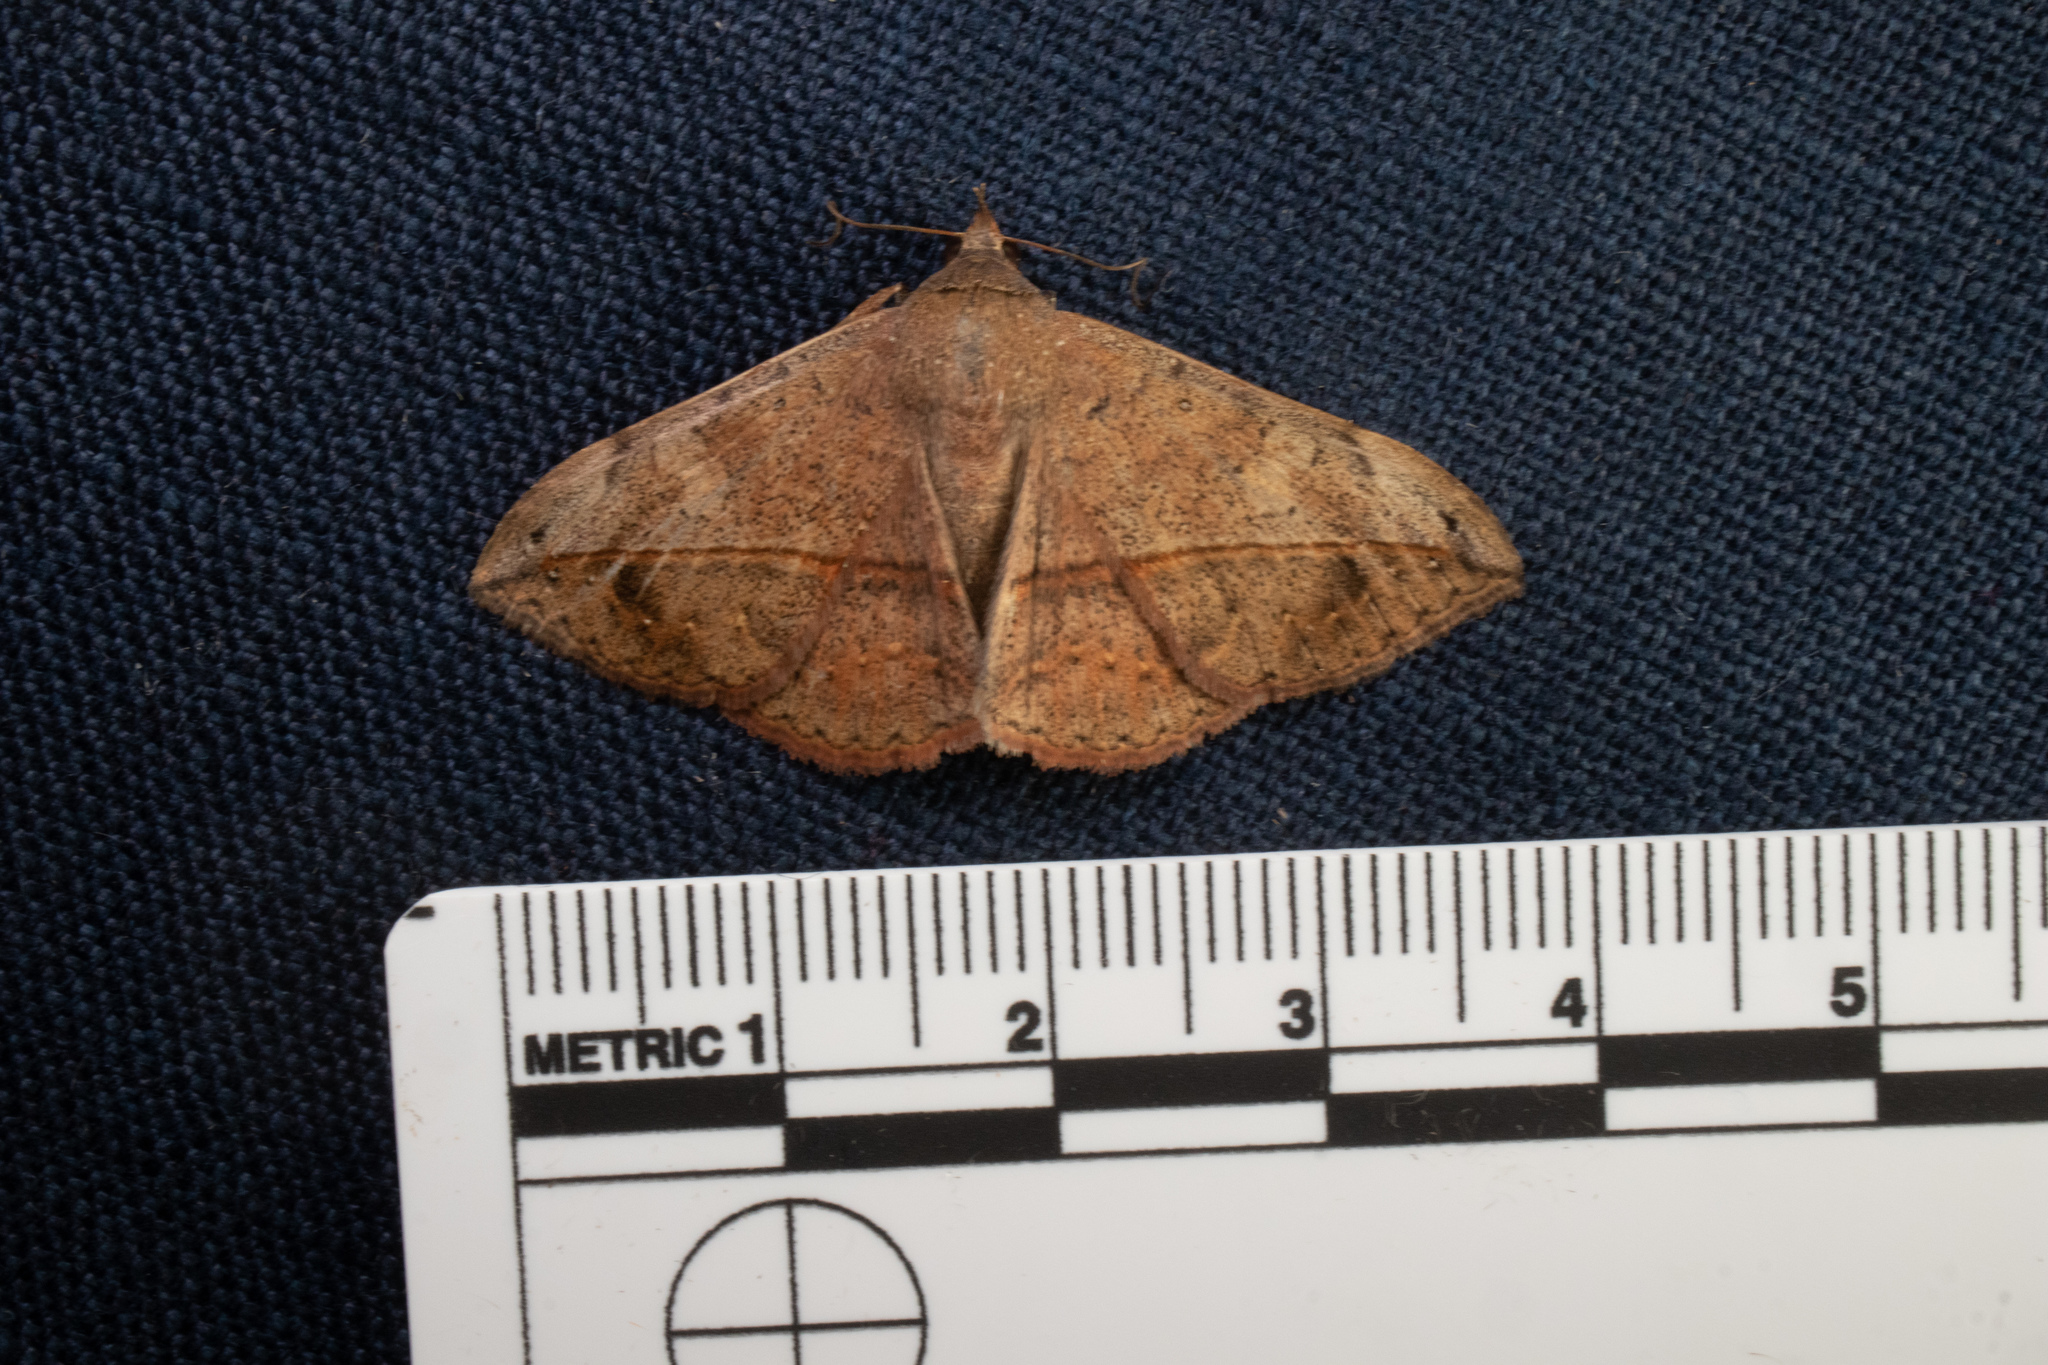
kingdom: Animalia
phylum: Arthropoda
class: Insecta
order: Lepidoptera
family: Erebidae
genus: Anticarsia
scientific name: Anticarsia gemmatalis
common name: Cutworm moth
